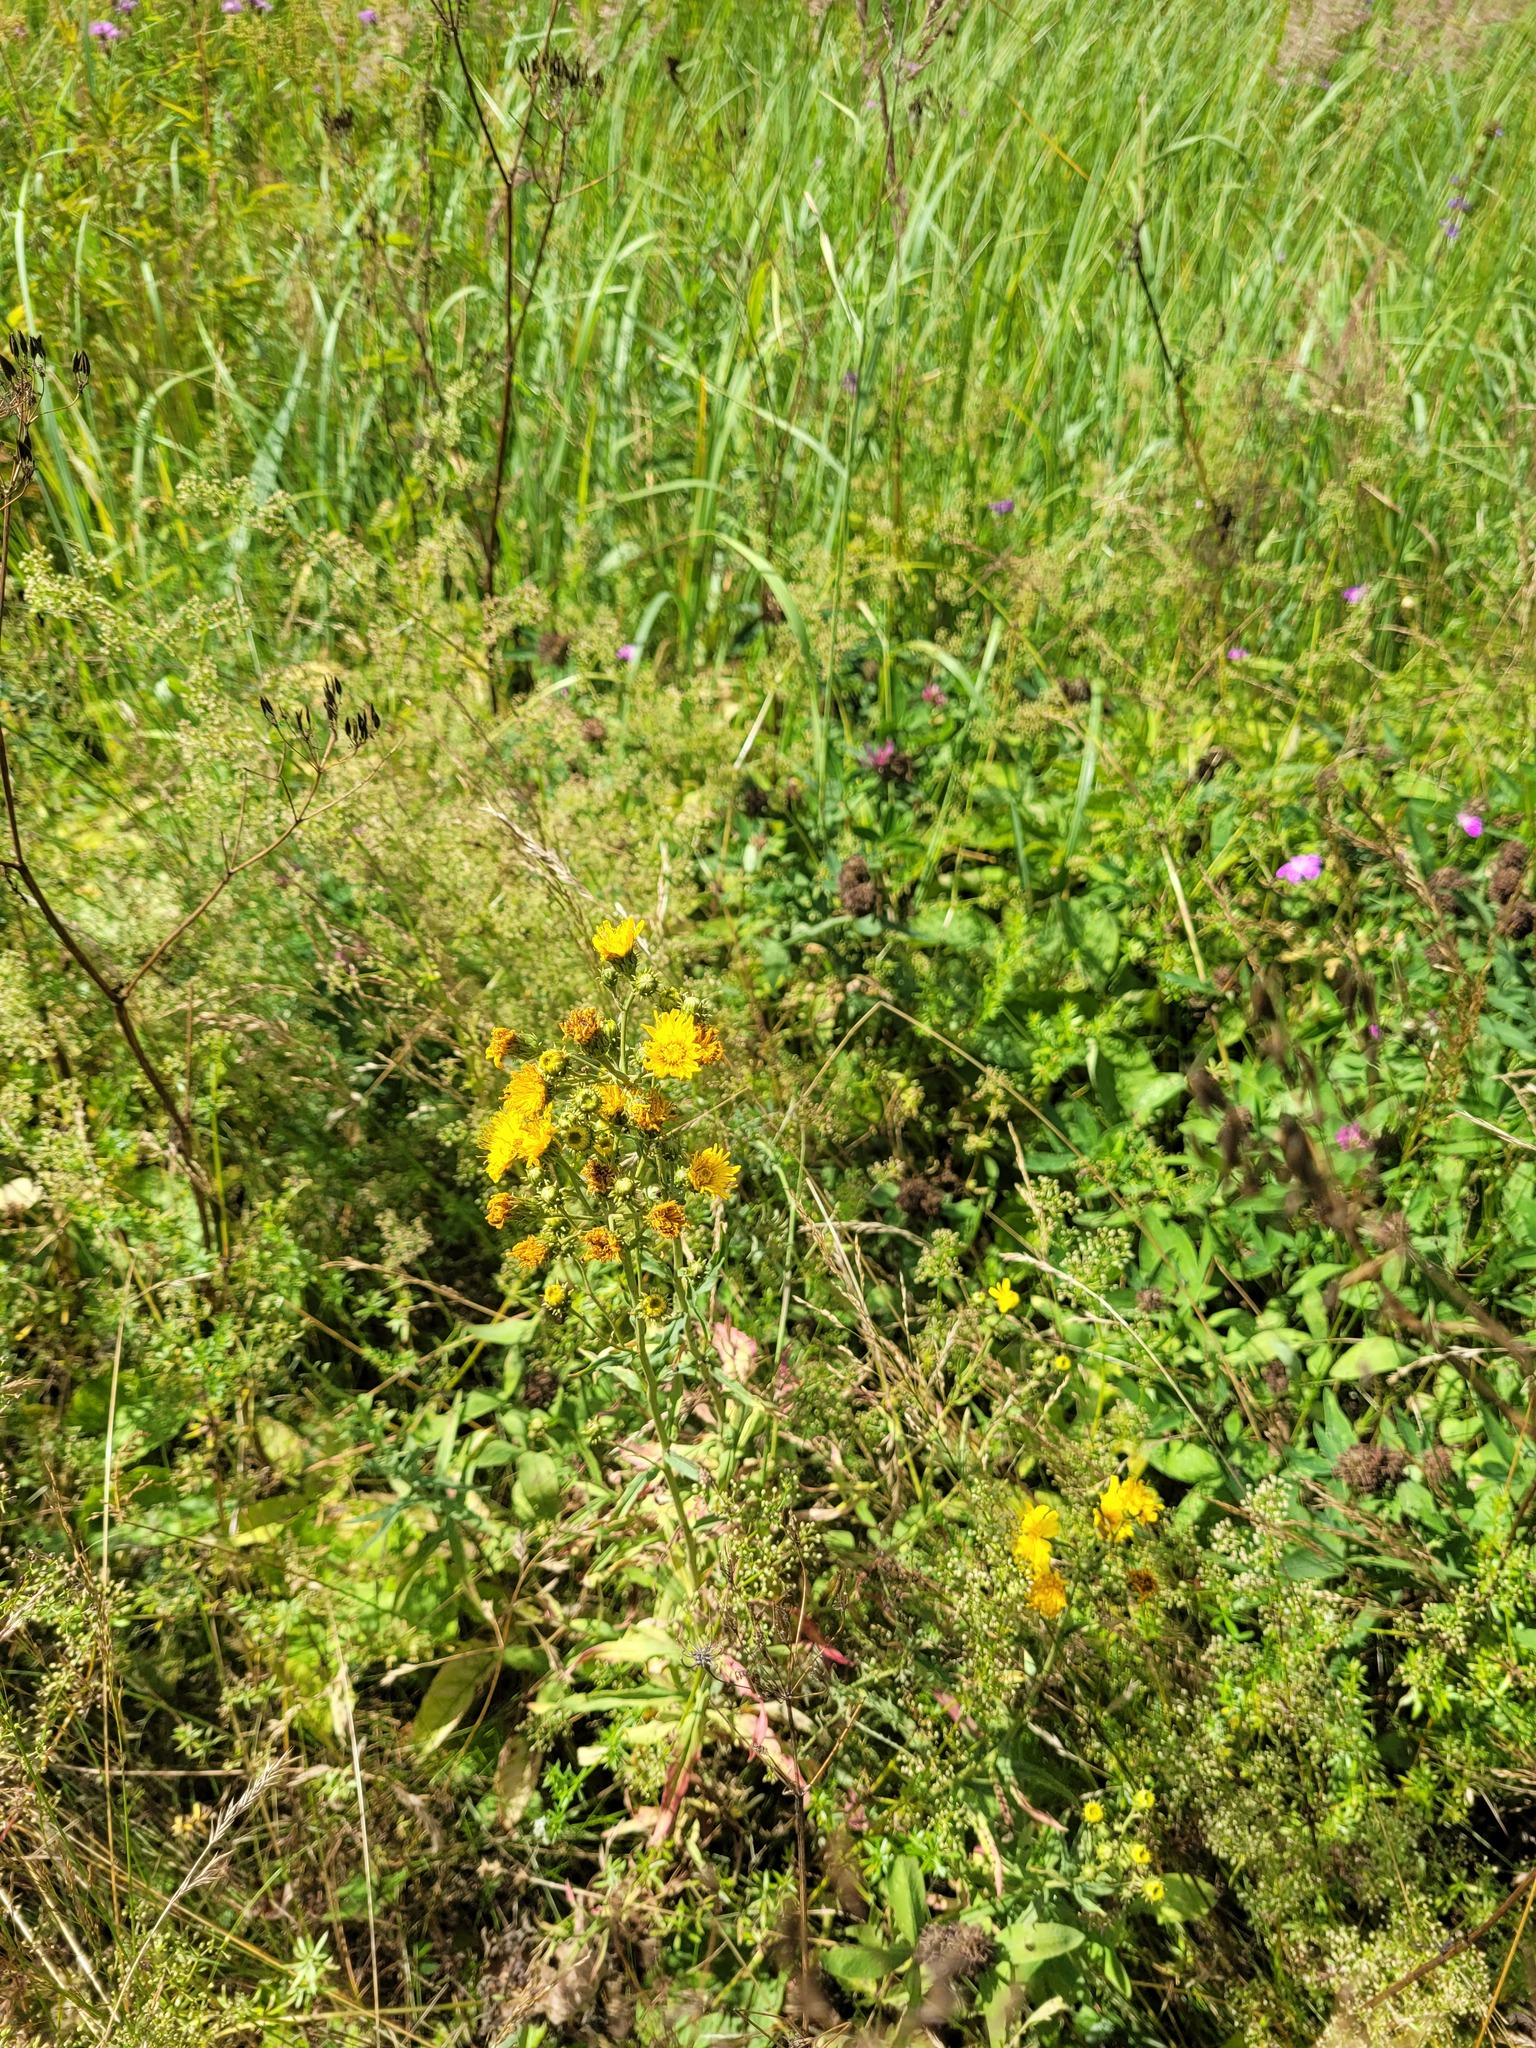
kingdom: Plantae
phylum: Tracheophyta
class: Magnoliopsida
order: Asterales
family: Asteraceae
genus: Hieracium
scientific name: Hieracium umbellatum
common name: Northern hawkweed
